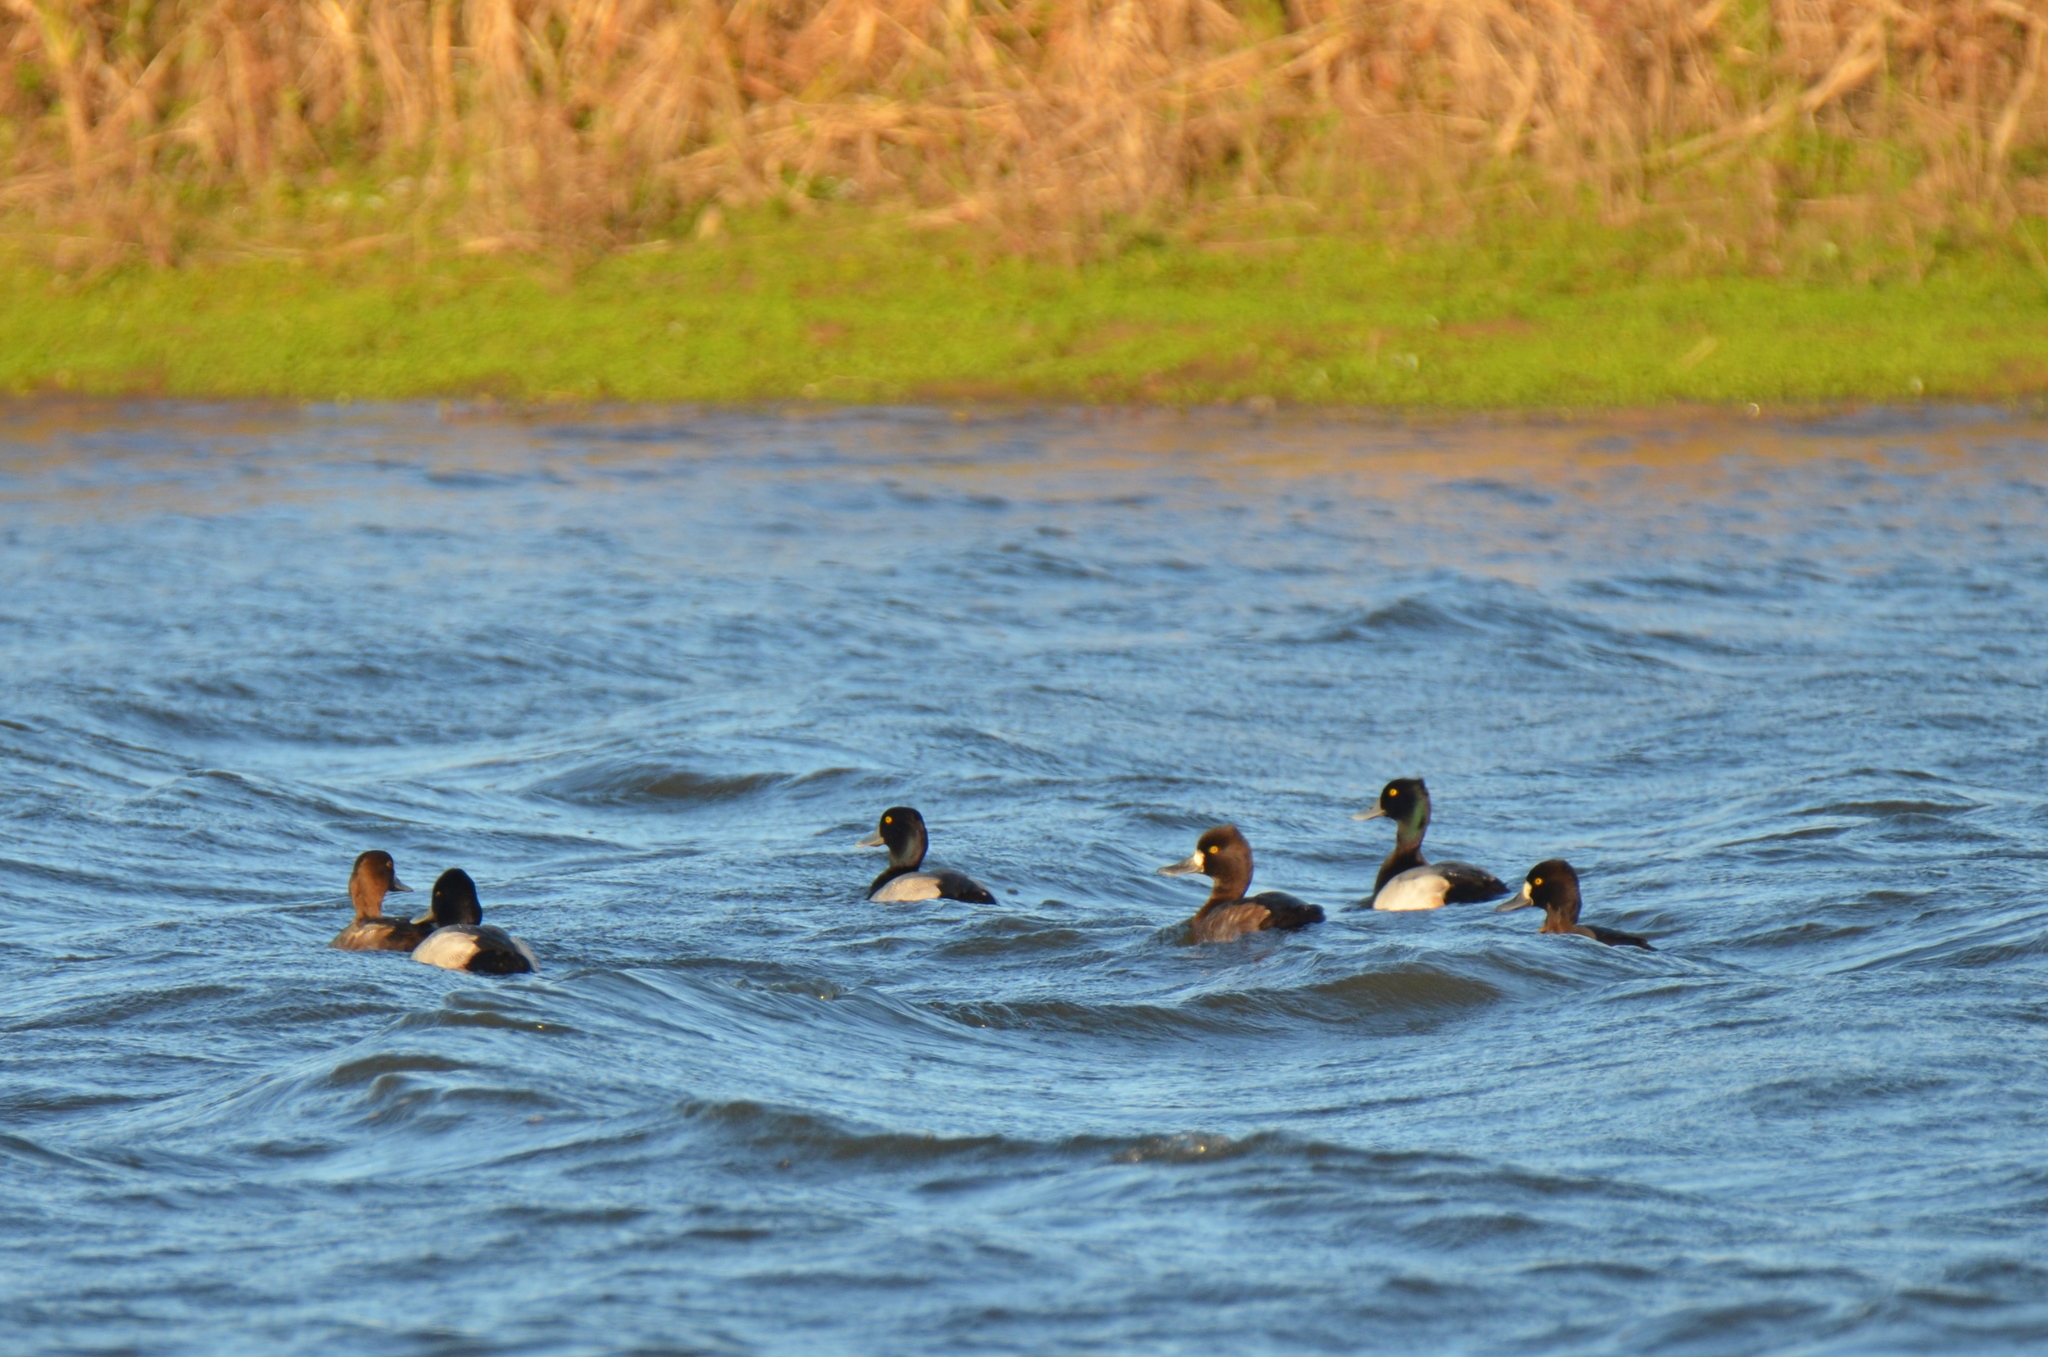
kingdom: Animalia
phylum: Chordata
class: Aves
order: Anseriformes
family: Anatidae
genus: Aythya
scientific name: Aythya affinis
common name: Lesser scaup
